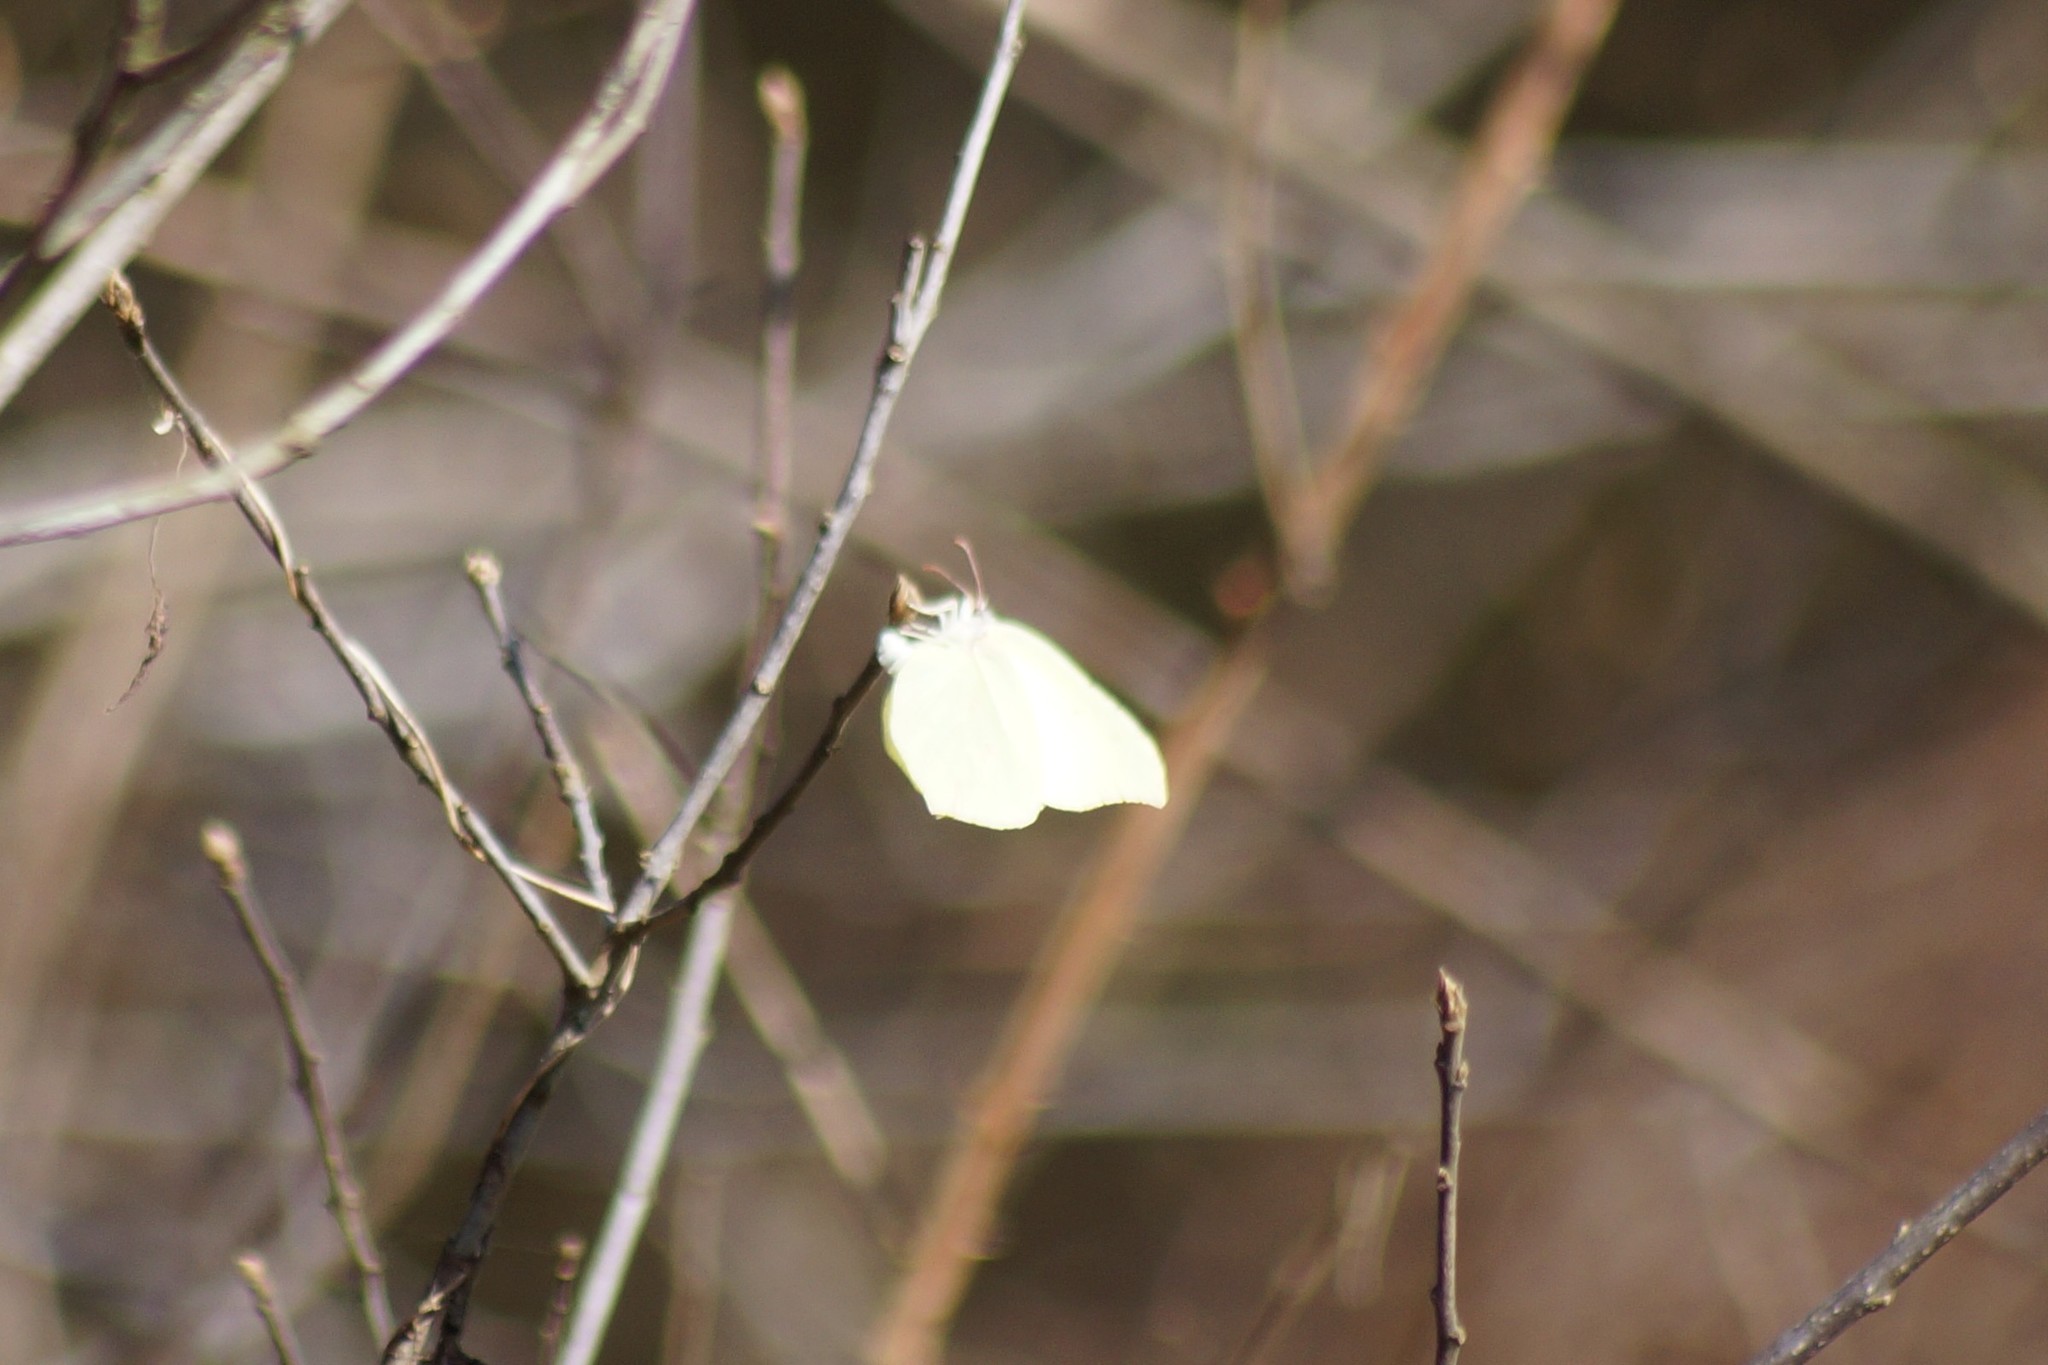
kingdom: Animalia
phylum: Arthropoda
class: Insecta
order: Lepidoptera
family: Pieridae
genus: Gonepteryx
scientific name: Gonepteryx rhamni
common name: Brimstone
